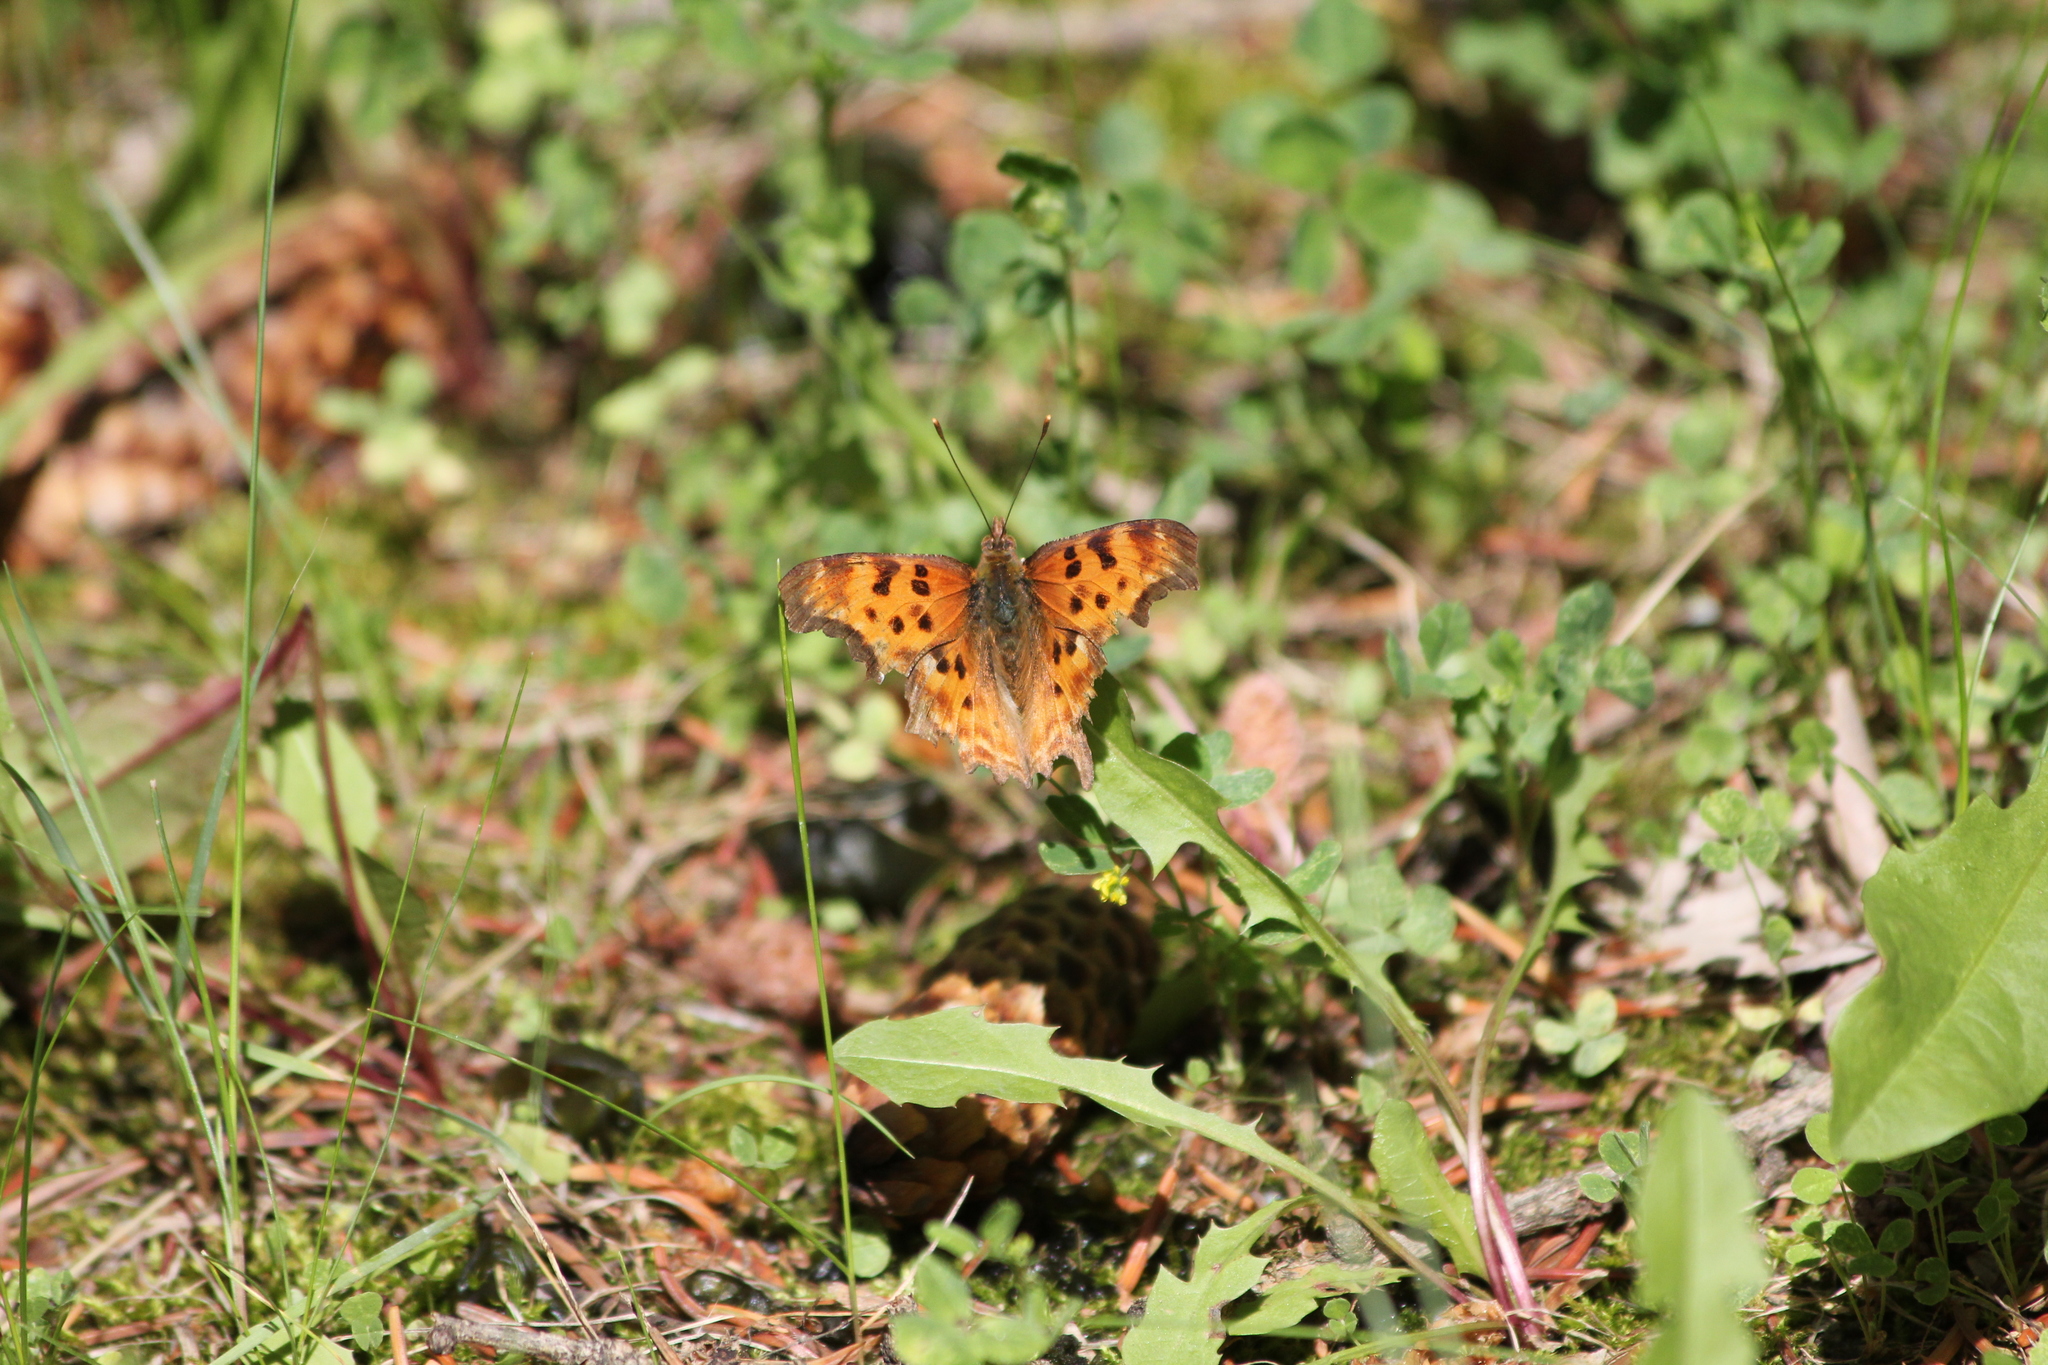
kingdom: Animalia
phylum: Arthropoda
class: Insecta
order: Lepidoptera
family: Nymphalidae
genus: Polygonia
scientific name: Polygonia satyrus
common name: Satyr angle wing
